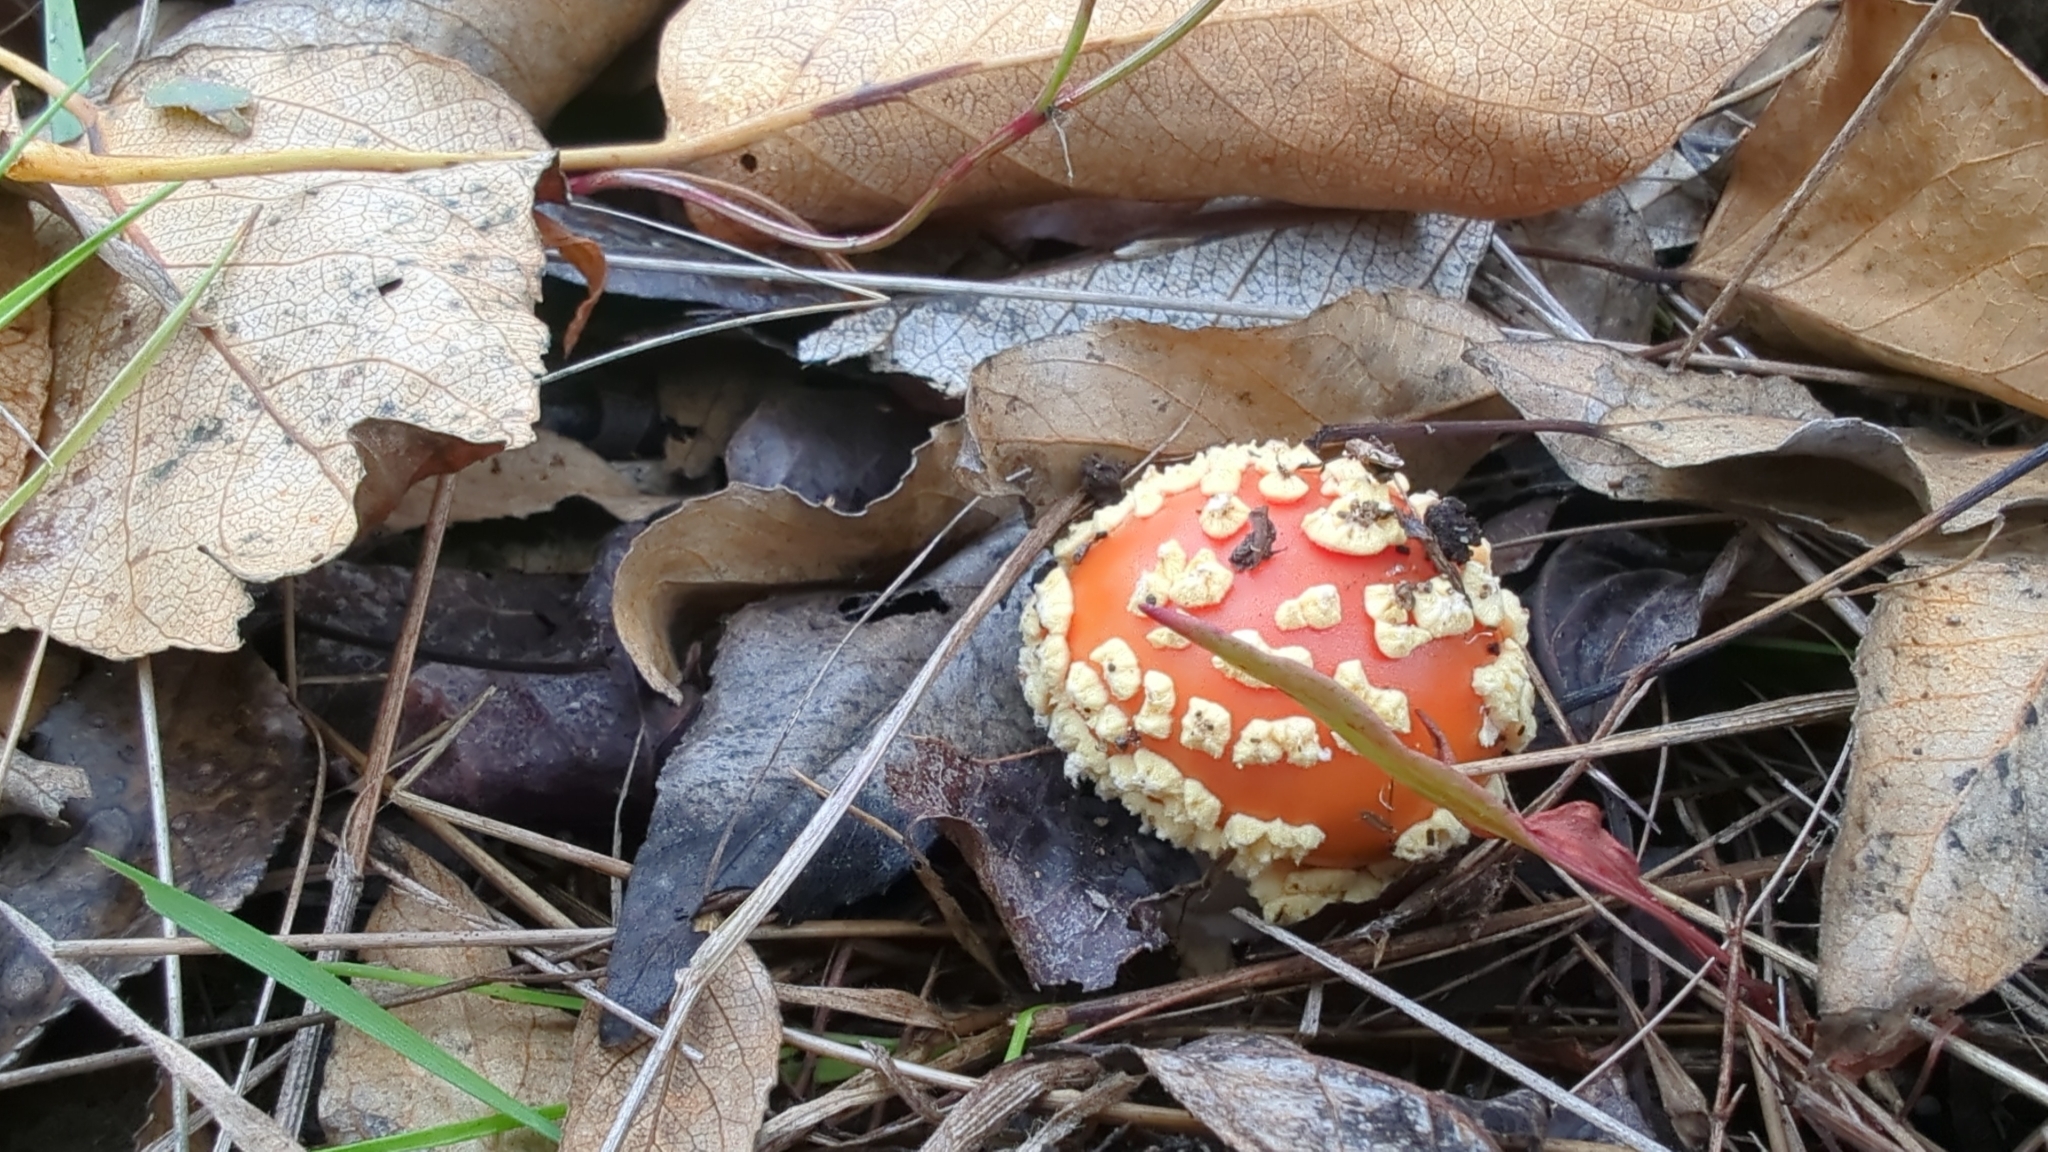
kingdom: Fungi
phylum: Basidiomycota
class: Agaricomycetes
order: Agaricales
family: Amanitaceae
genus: Amanita
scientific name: Amanita muscaria
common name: Fly agaric
